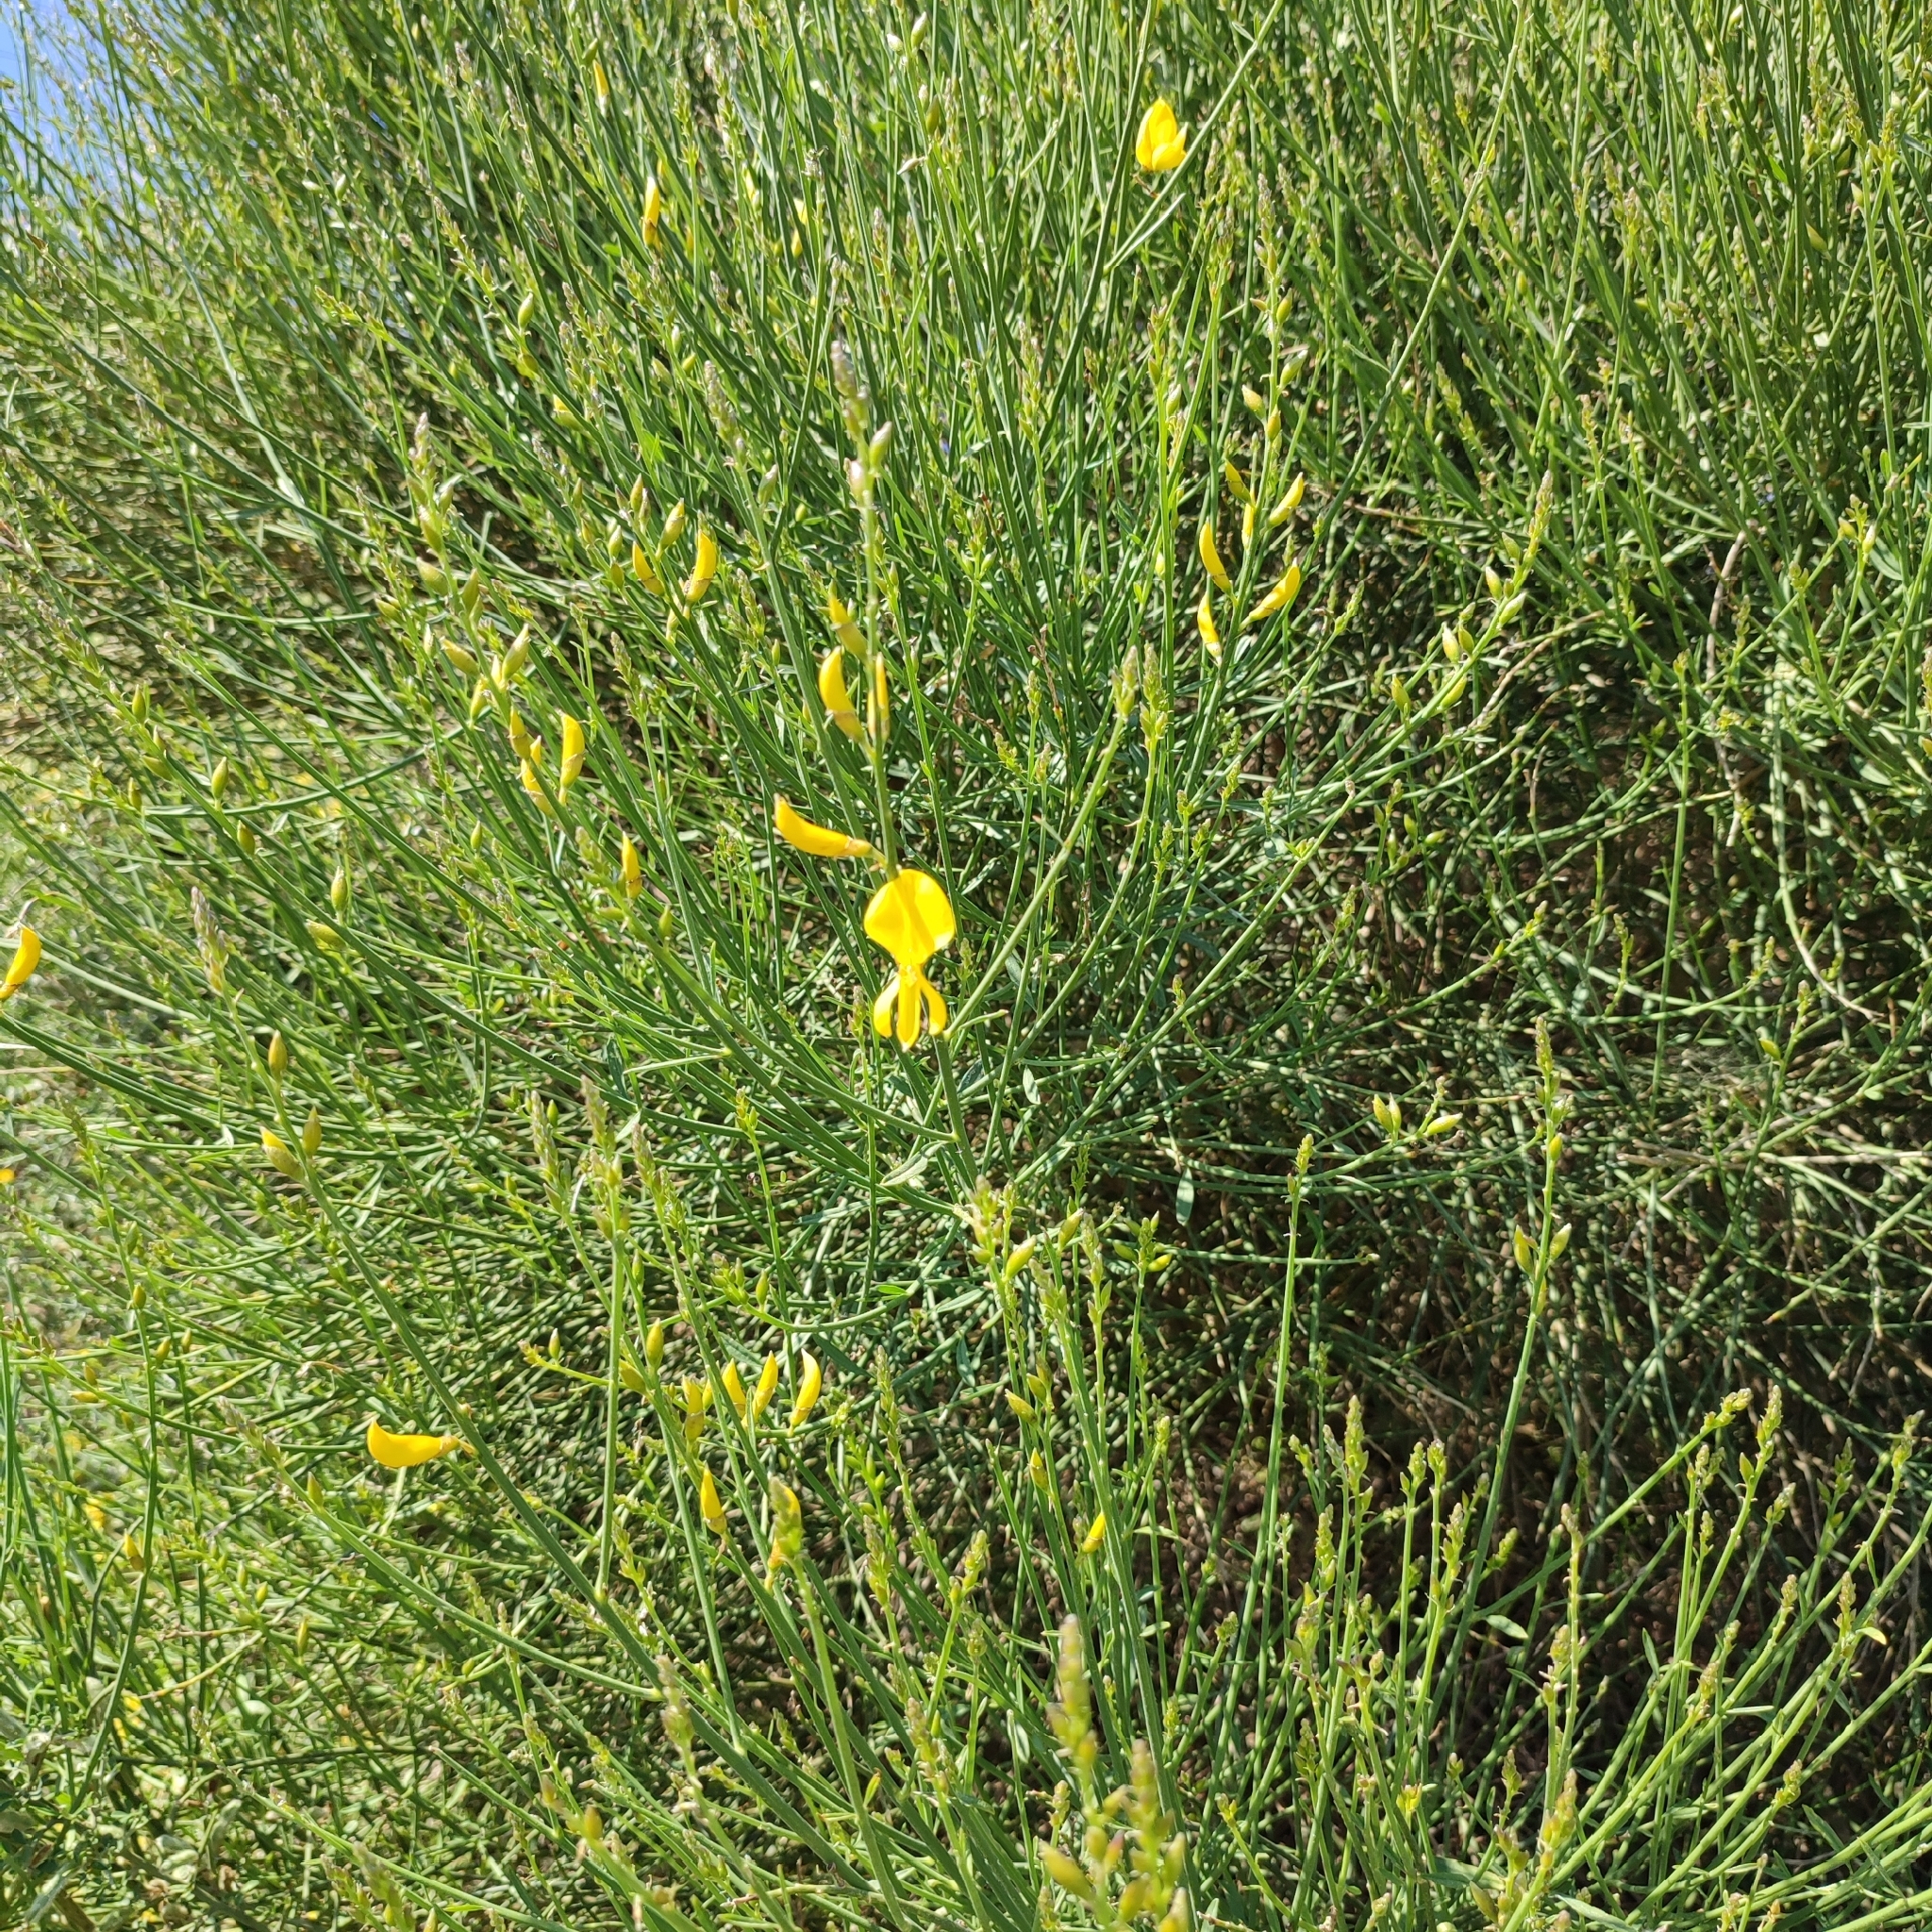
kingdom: Plantae
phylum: Tracheophyta
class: Magnoliopsida
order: Fabales
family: Fabaceae
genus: Spartium
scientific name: Spartium junceum
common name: Spanish broom
